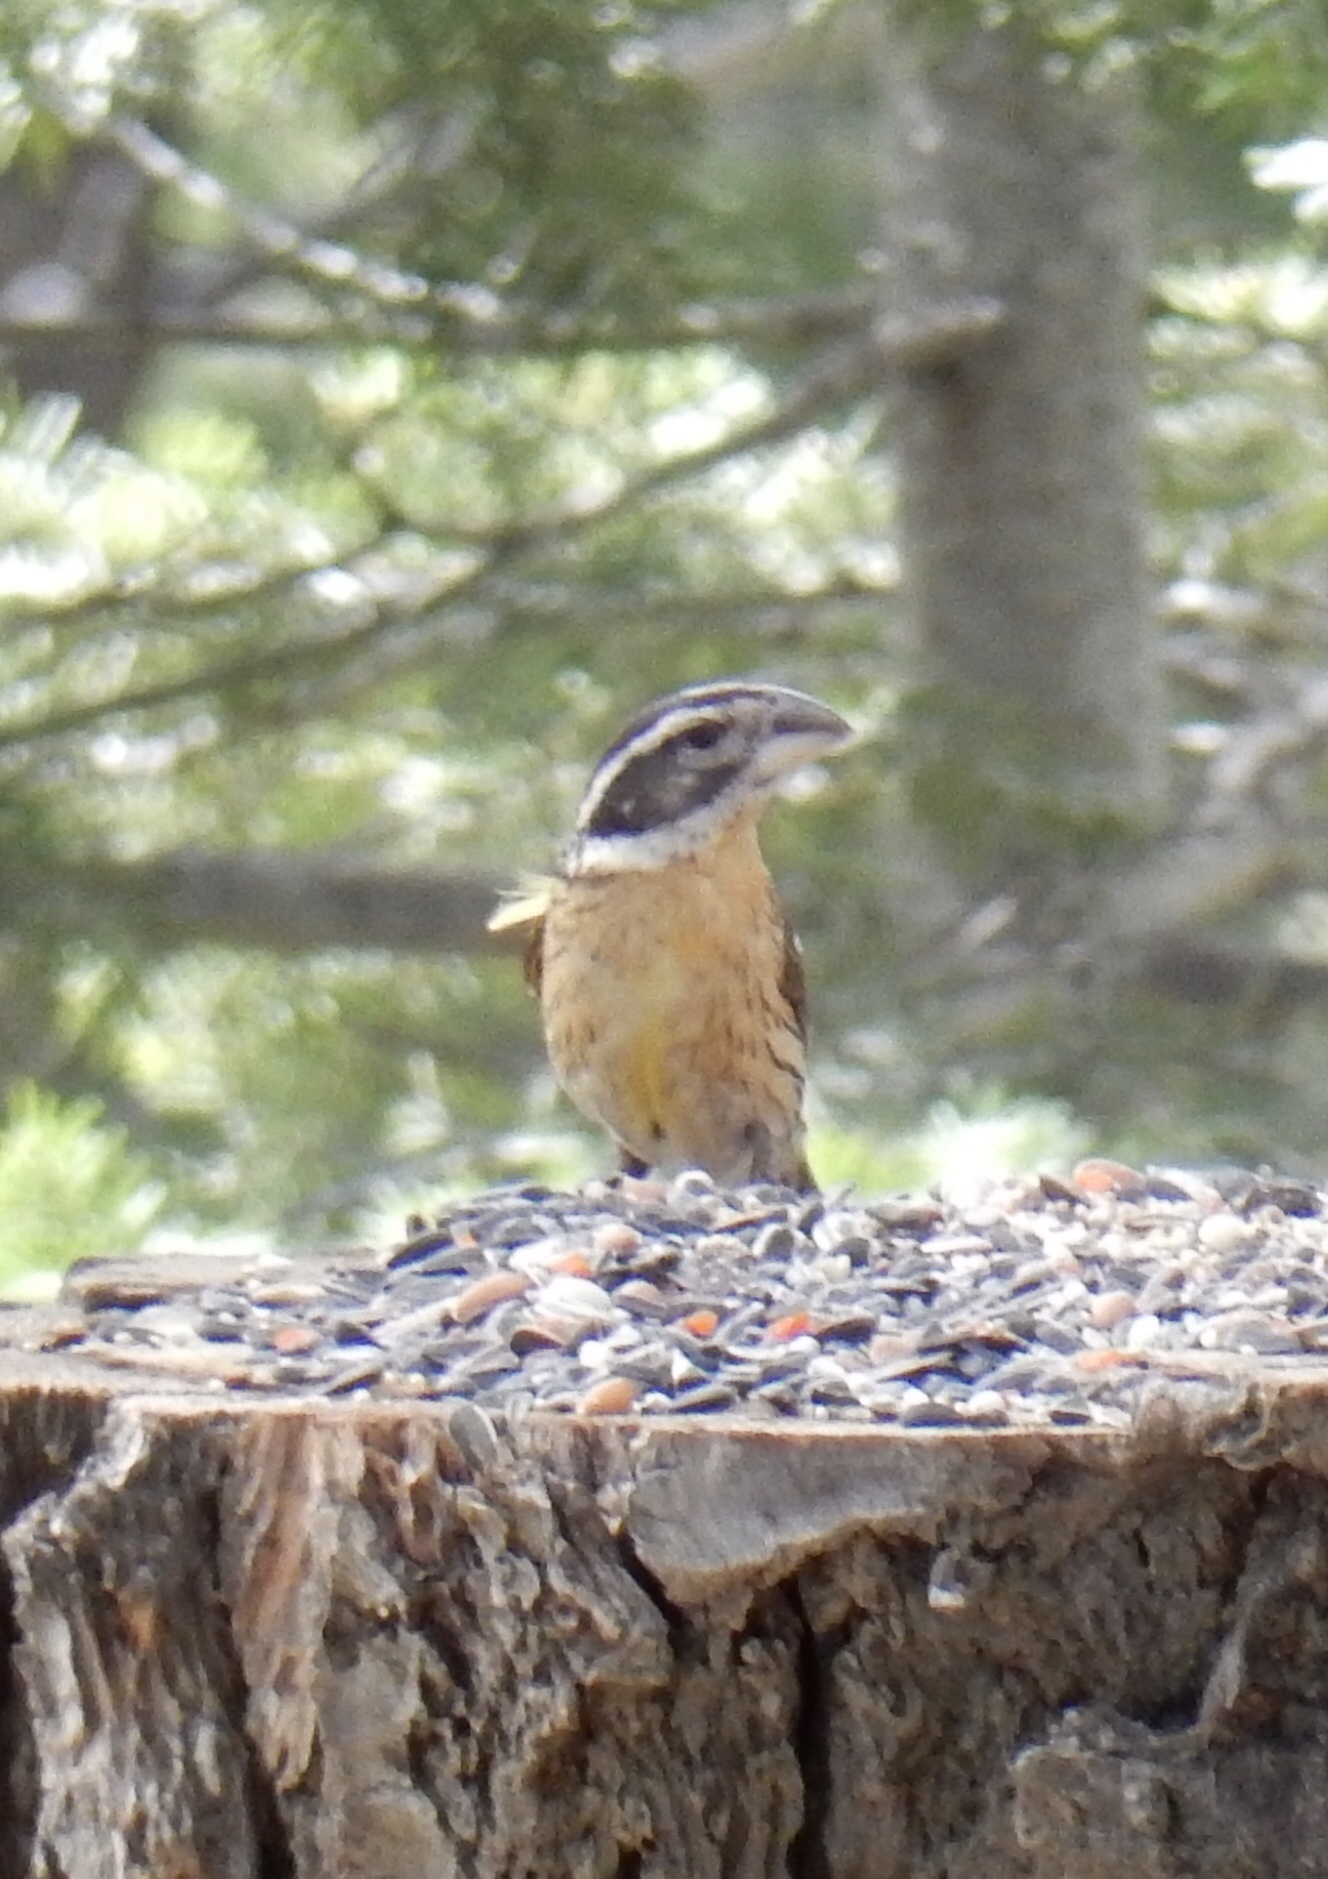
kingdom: Animalia
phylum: Chordata
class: Aves
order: Passeriformes
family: Cardinalidae
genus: Pheucticus
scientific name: Pheucticus melanocephalus
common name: Black-headed grosbeak
